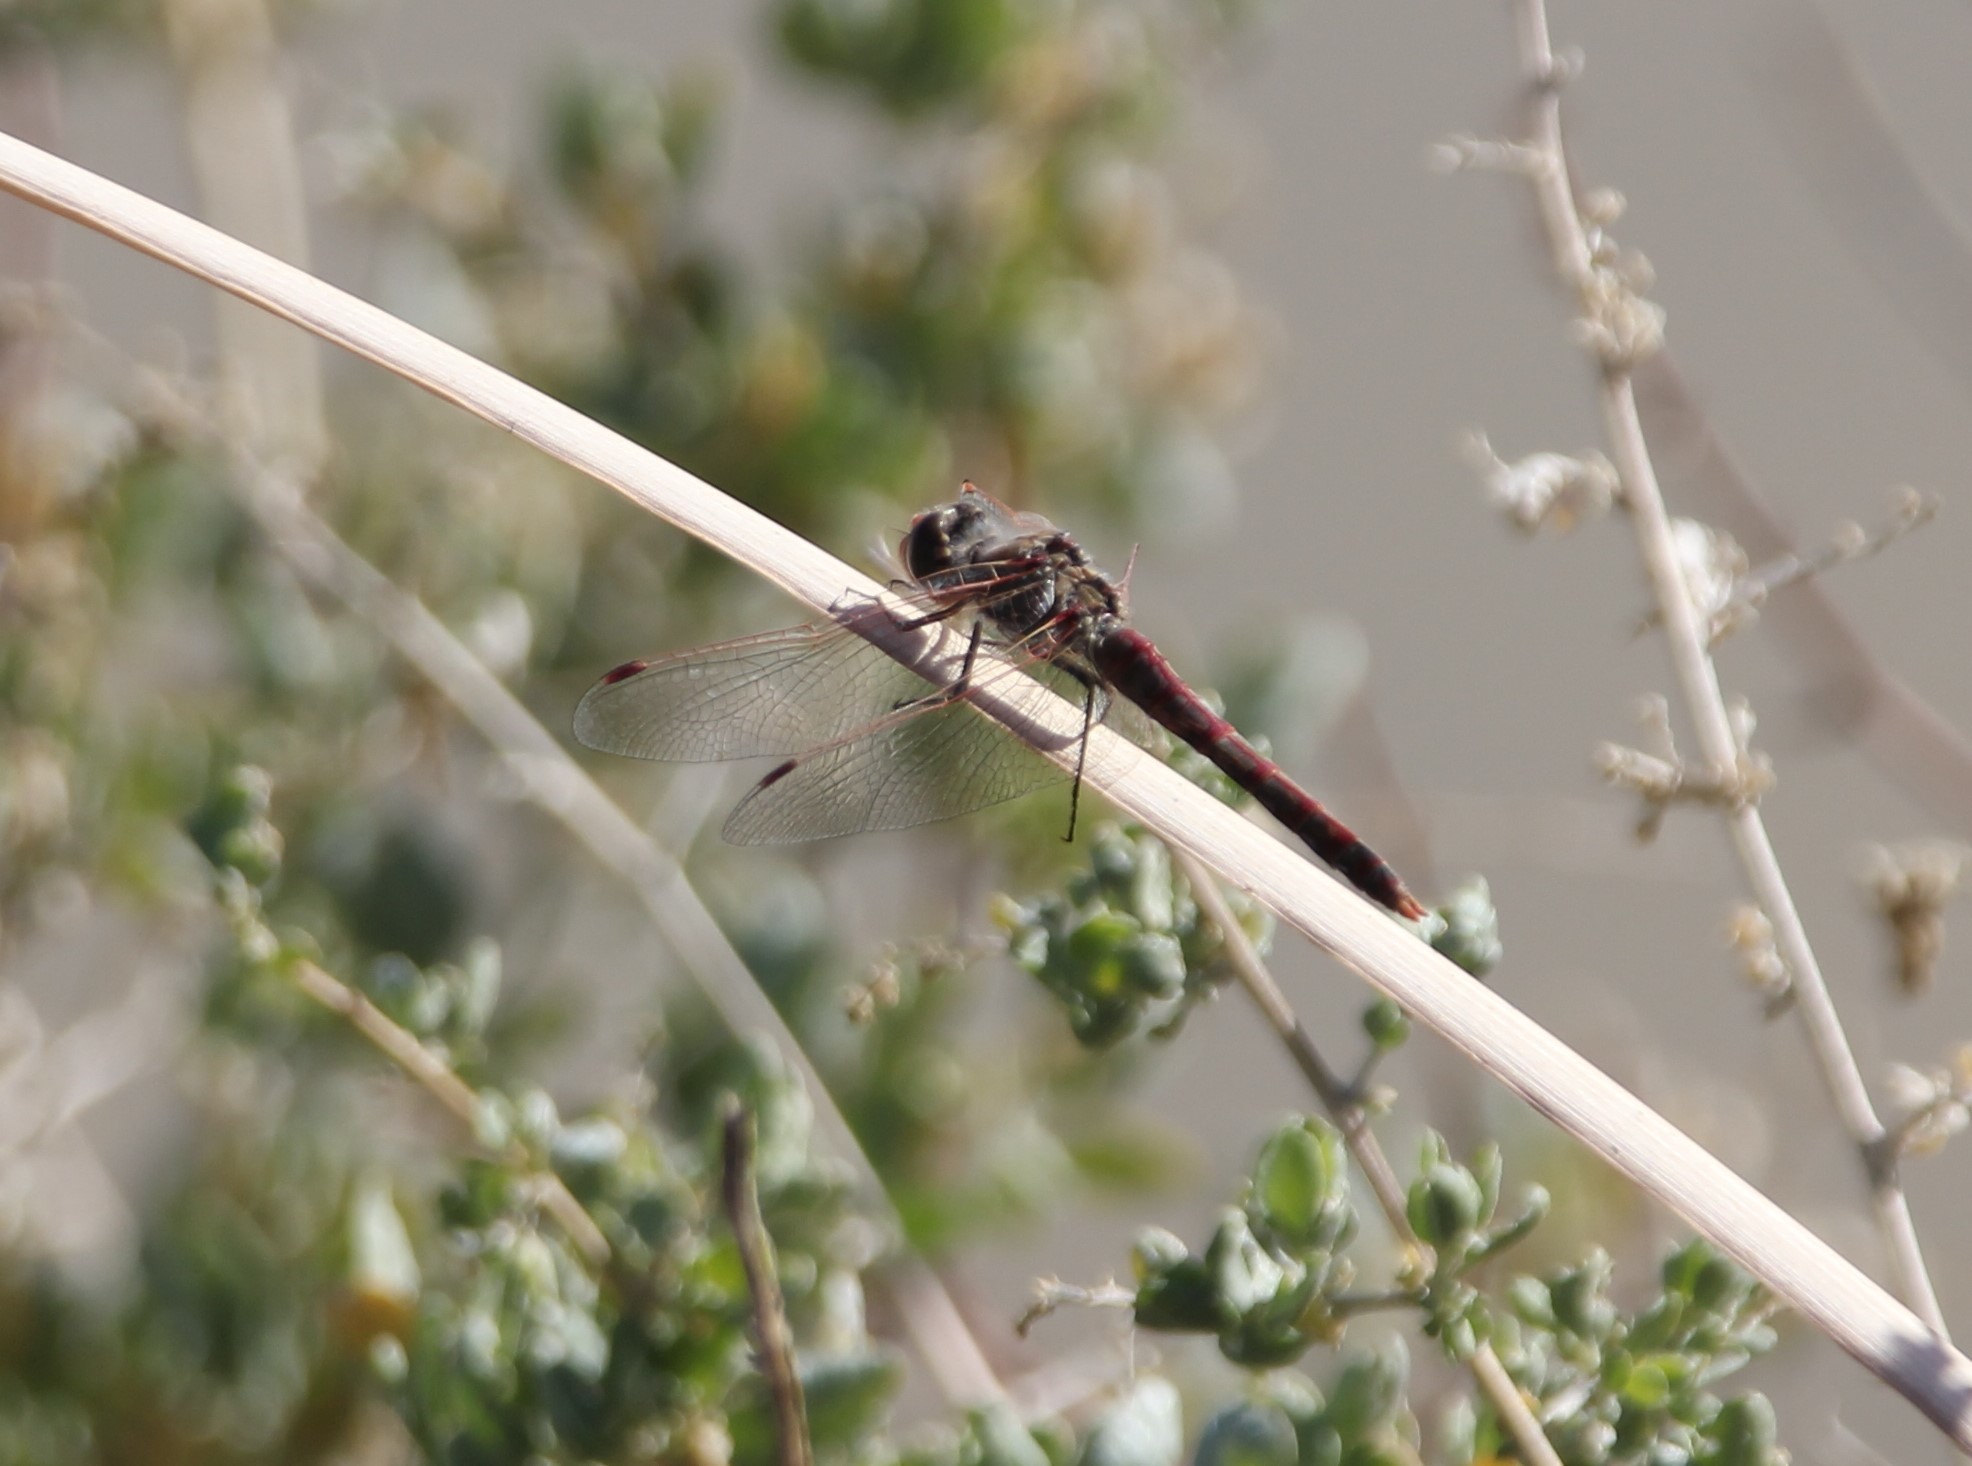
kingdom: Animalia
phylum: Arthropoda
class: Insecta
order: Odonata
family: Libellulidae
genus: Sympetrum
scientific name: Sympetrum corruptum
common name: Variegated meadowhawk
